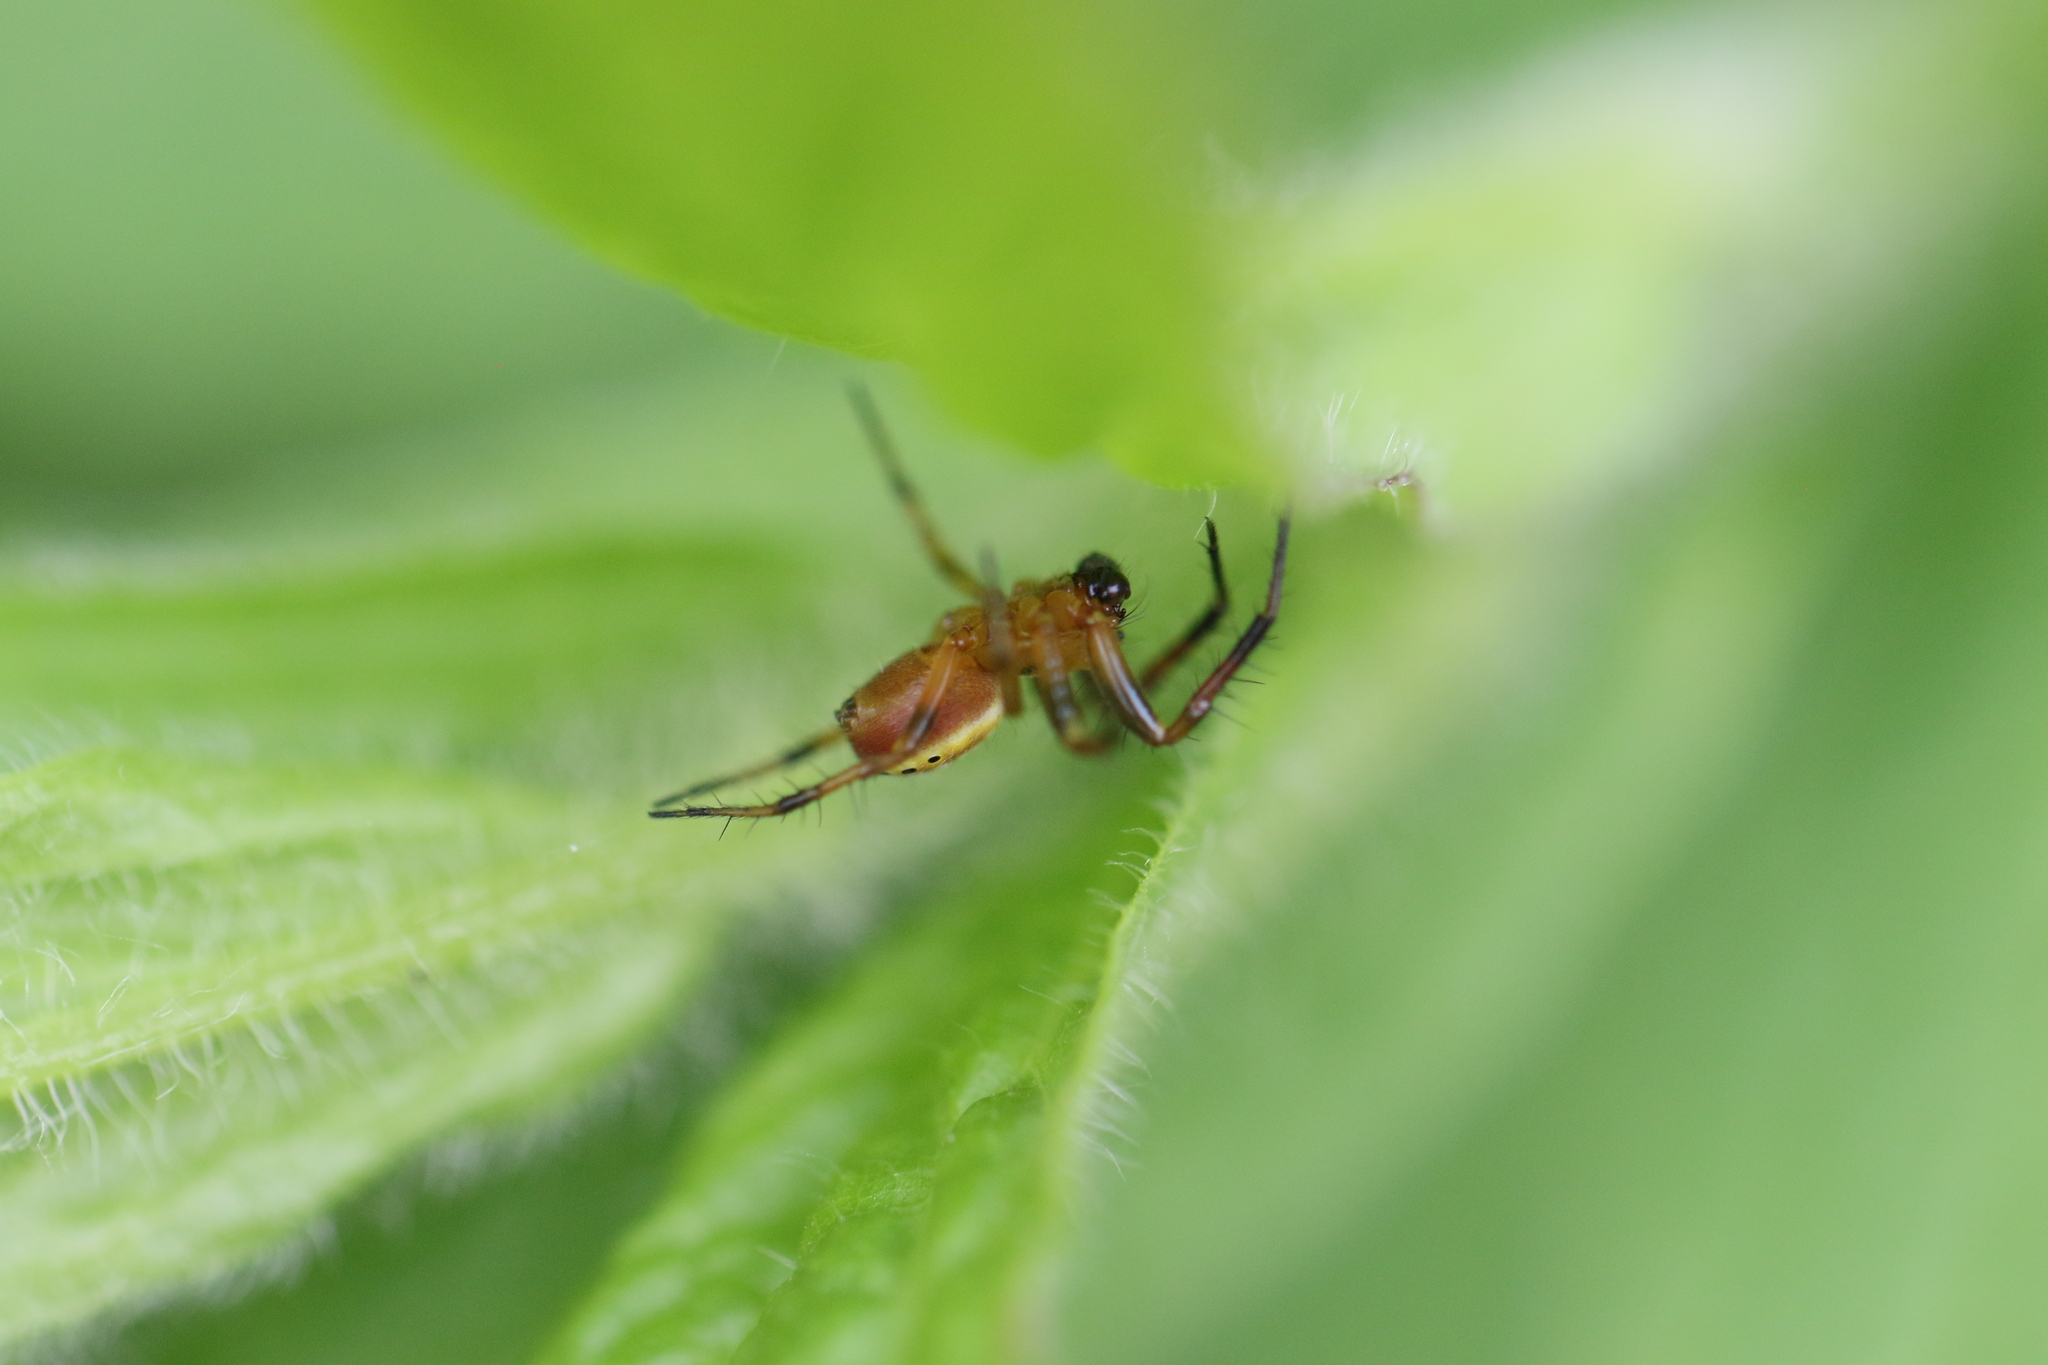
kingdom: Animalia
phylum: Arthropoda
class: Arachnida
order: Araneae
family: Araneidae
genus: Araniella
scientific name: Araniella displicata
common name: Sixspotted orb weaver
